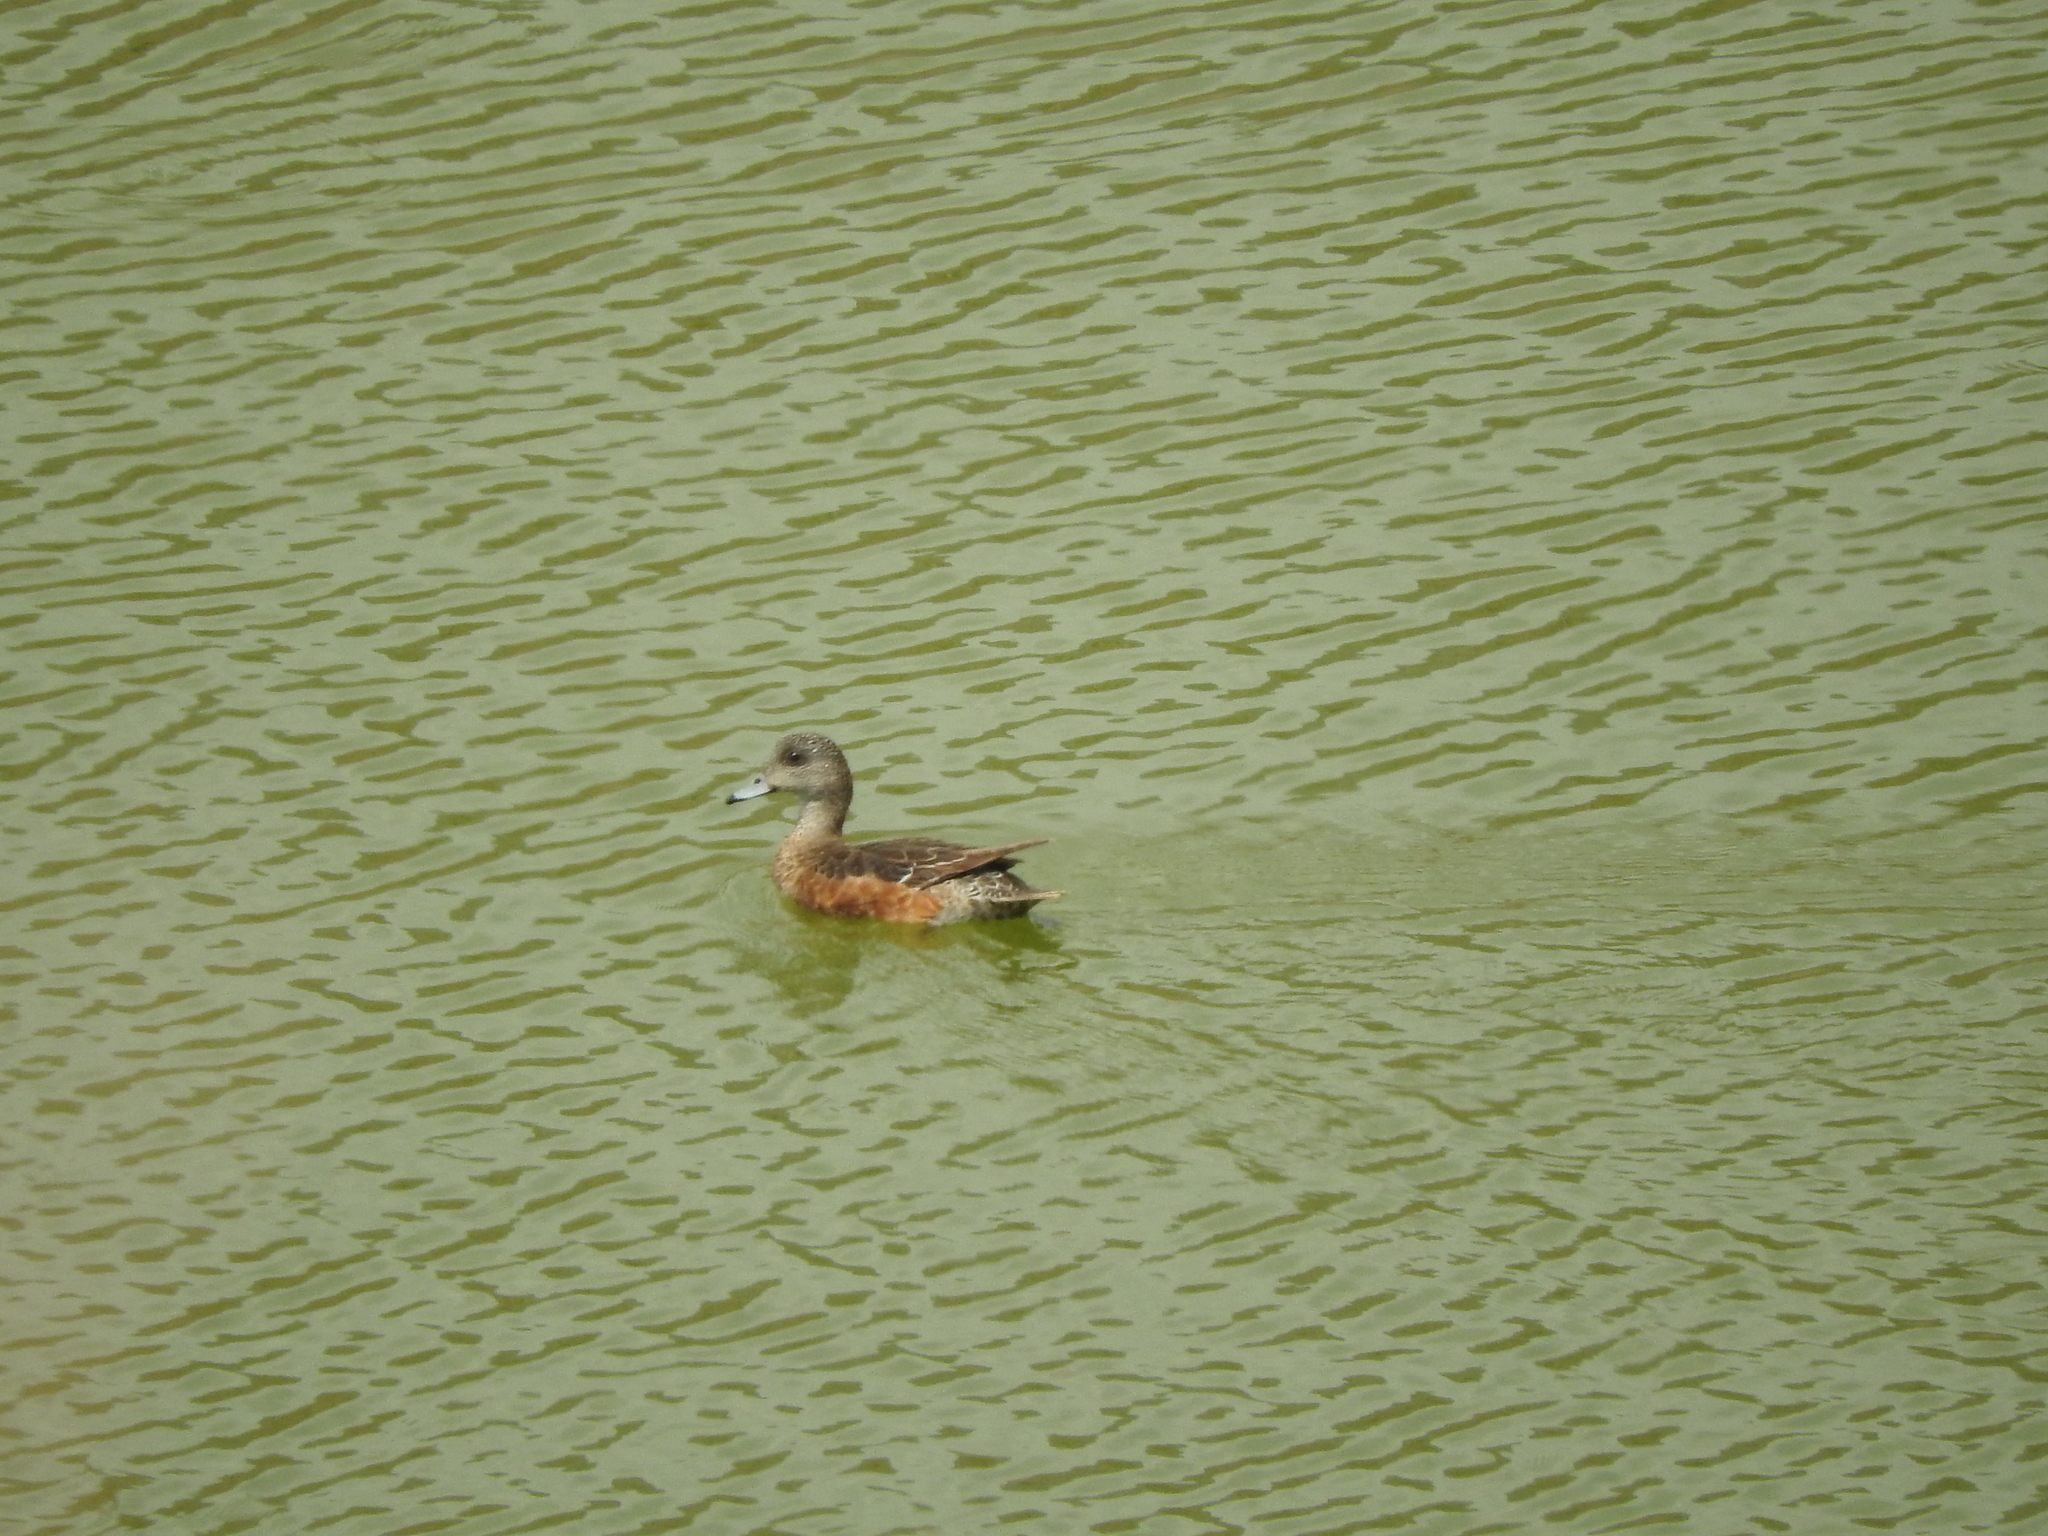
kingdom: Animalia
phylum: Chordata
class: Aves
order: Anseriformes
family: Anatidae
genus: Mareca
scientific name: Mareca americana
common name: American wigeon
